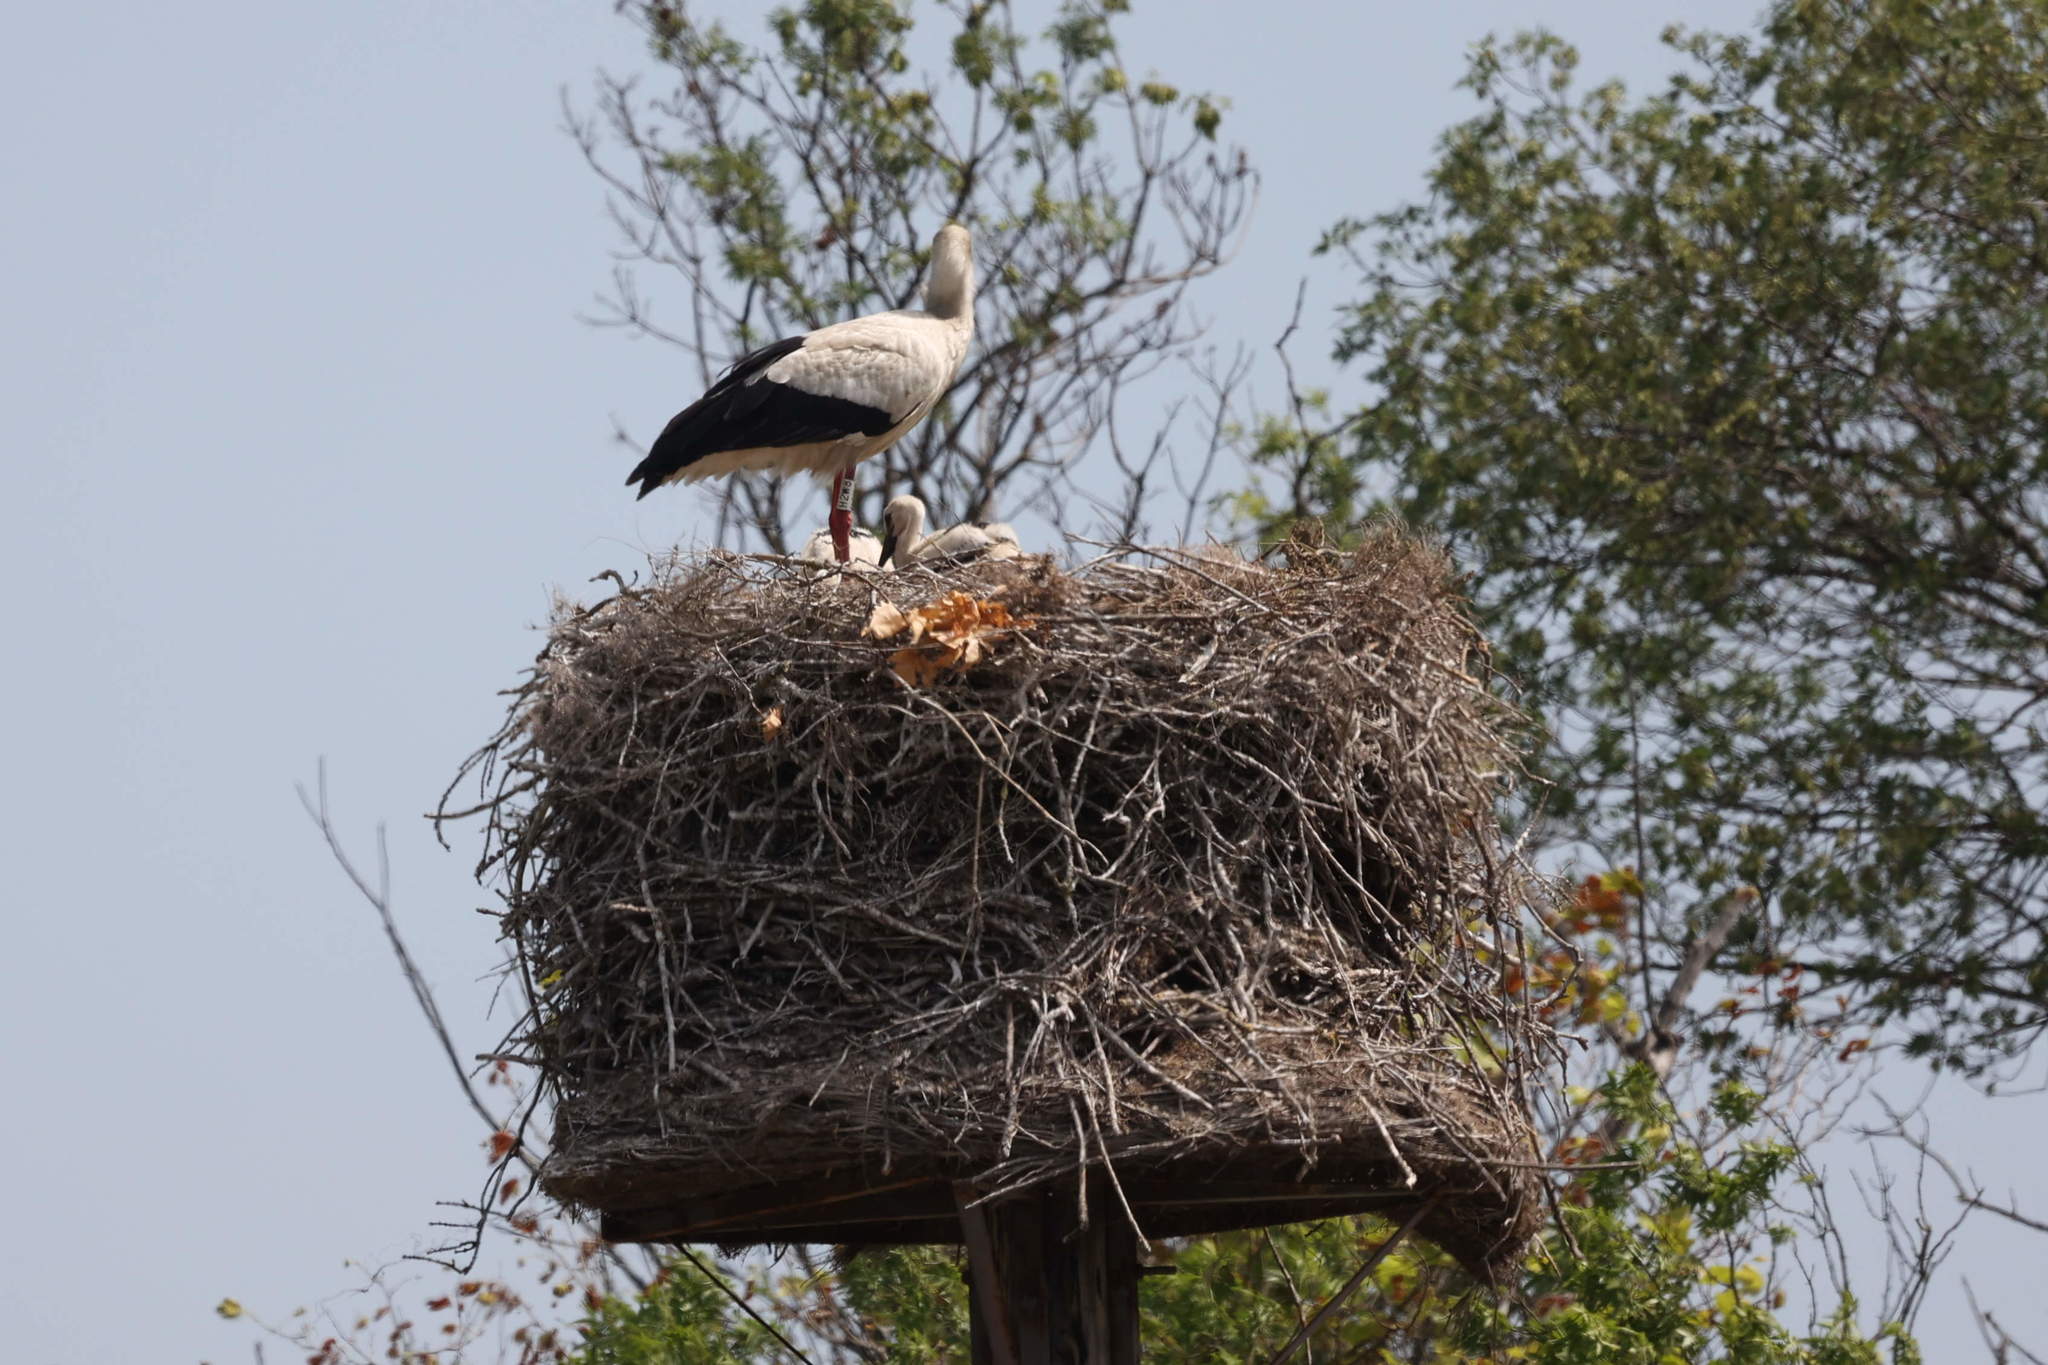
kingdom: Animalia
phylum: Chordata
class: Aves
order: Ciconiiformes
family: Ciconiidae
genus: Ciconia
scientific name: Ciconia ciconia
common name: White stork
